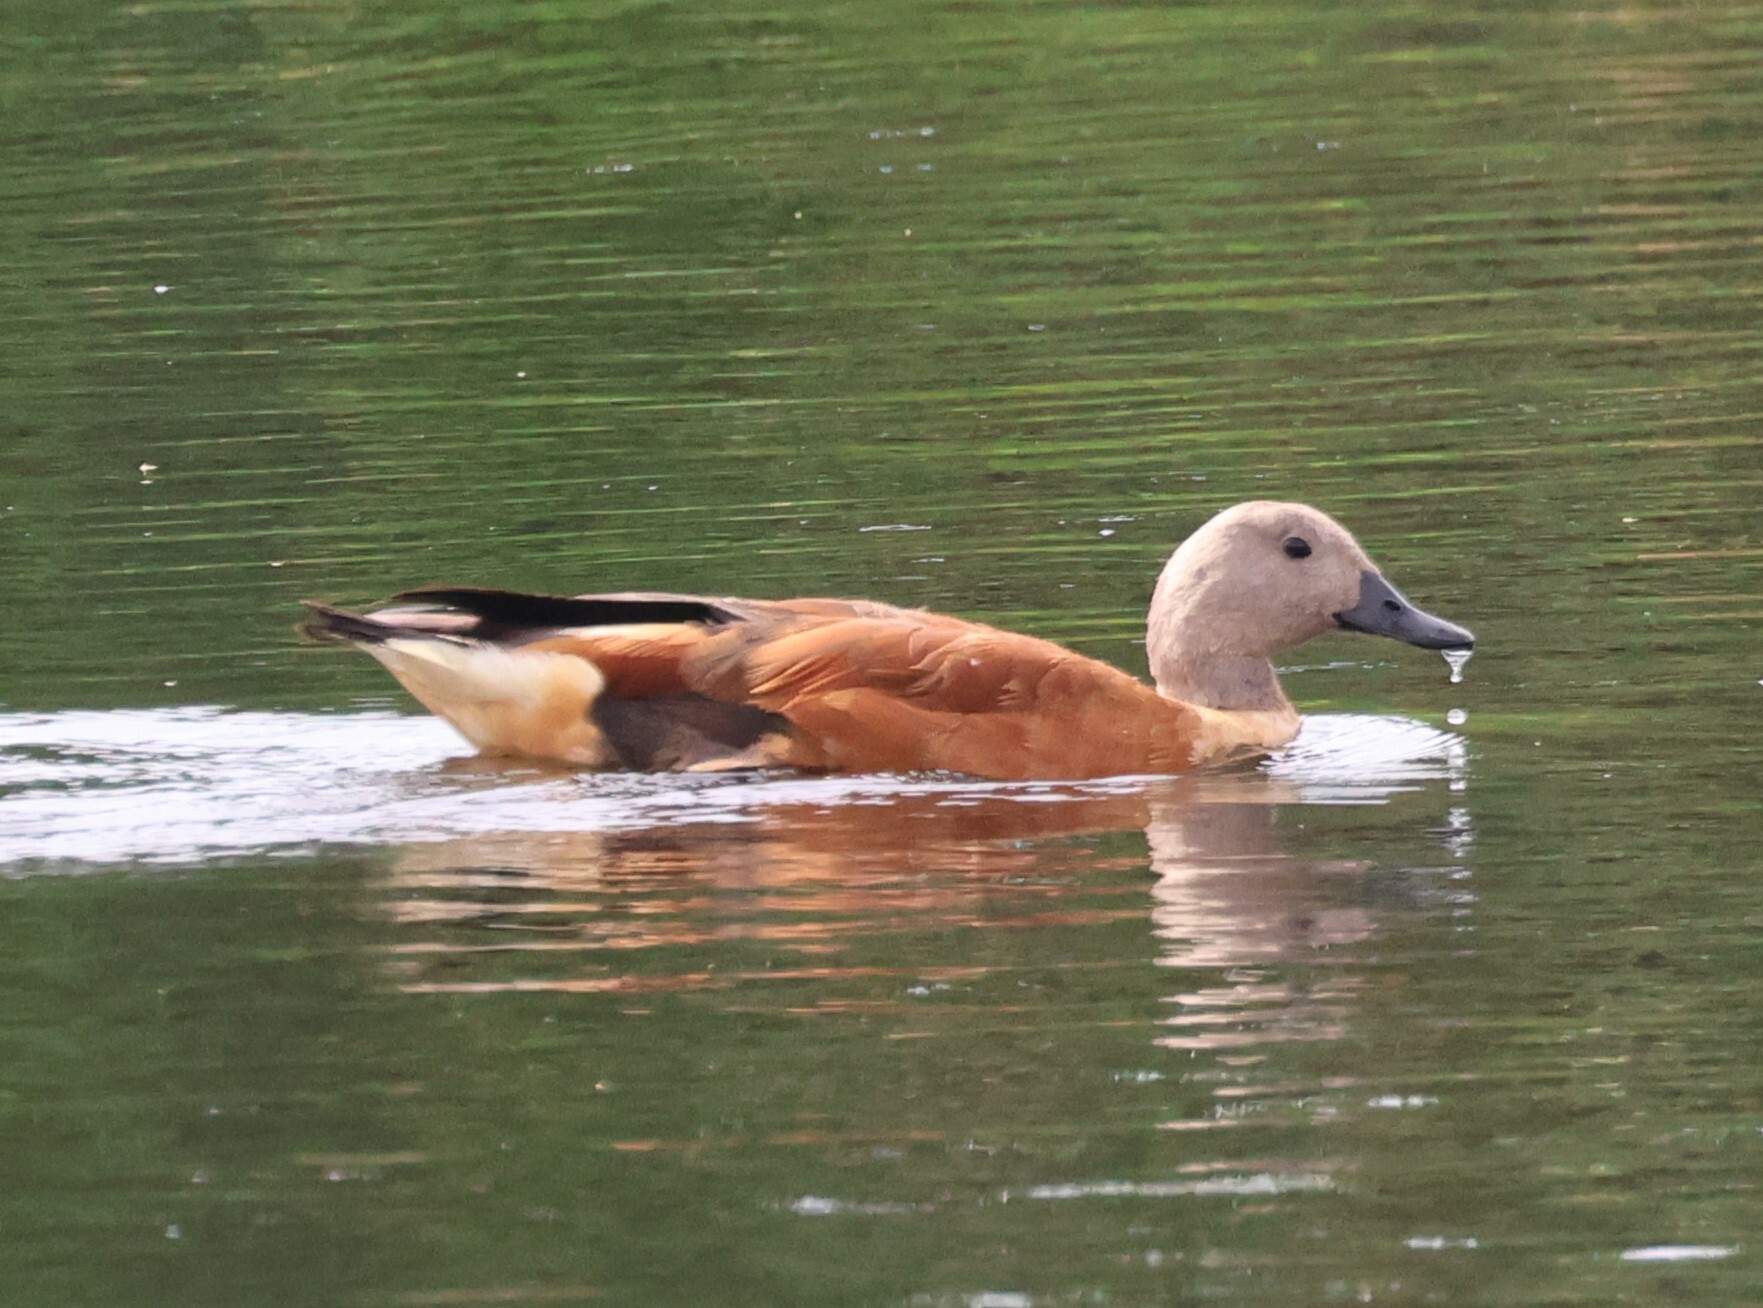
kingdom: Animalia
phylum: Chordata
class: Aves
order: Anseriformes
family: Anatidae
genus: Tadorna
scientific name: Tadorna cana
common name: South african shelduck
